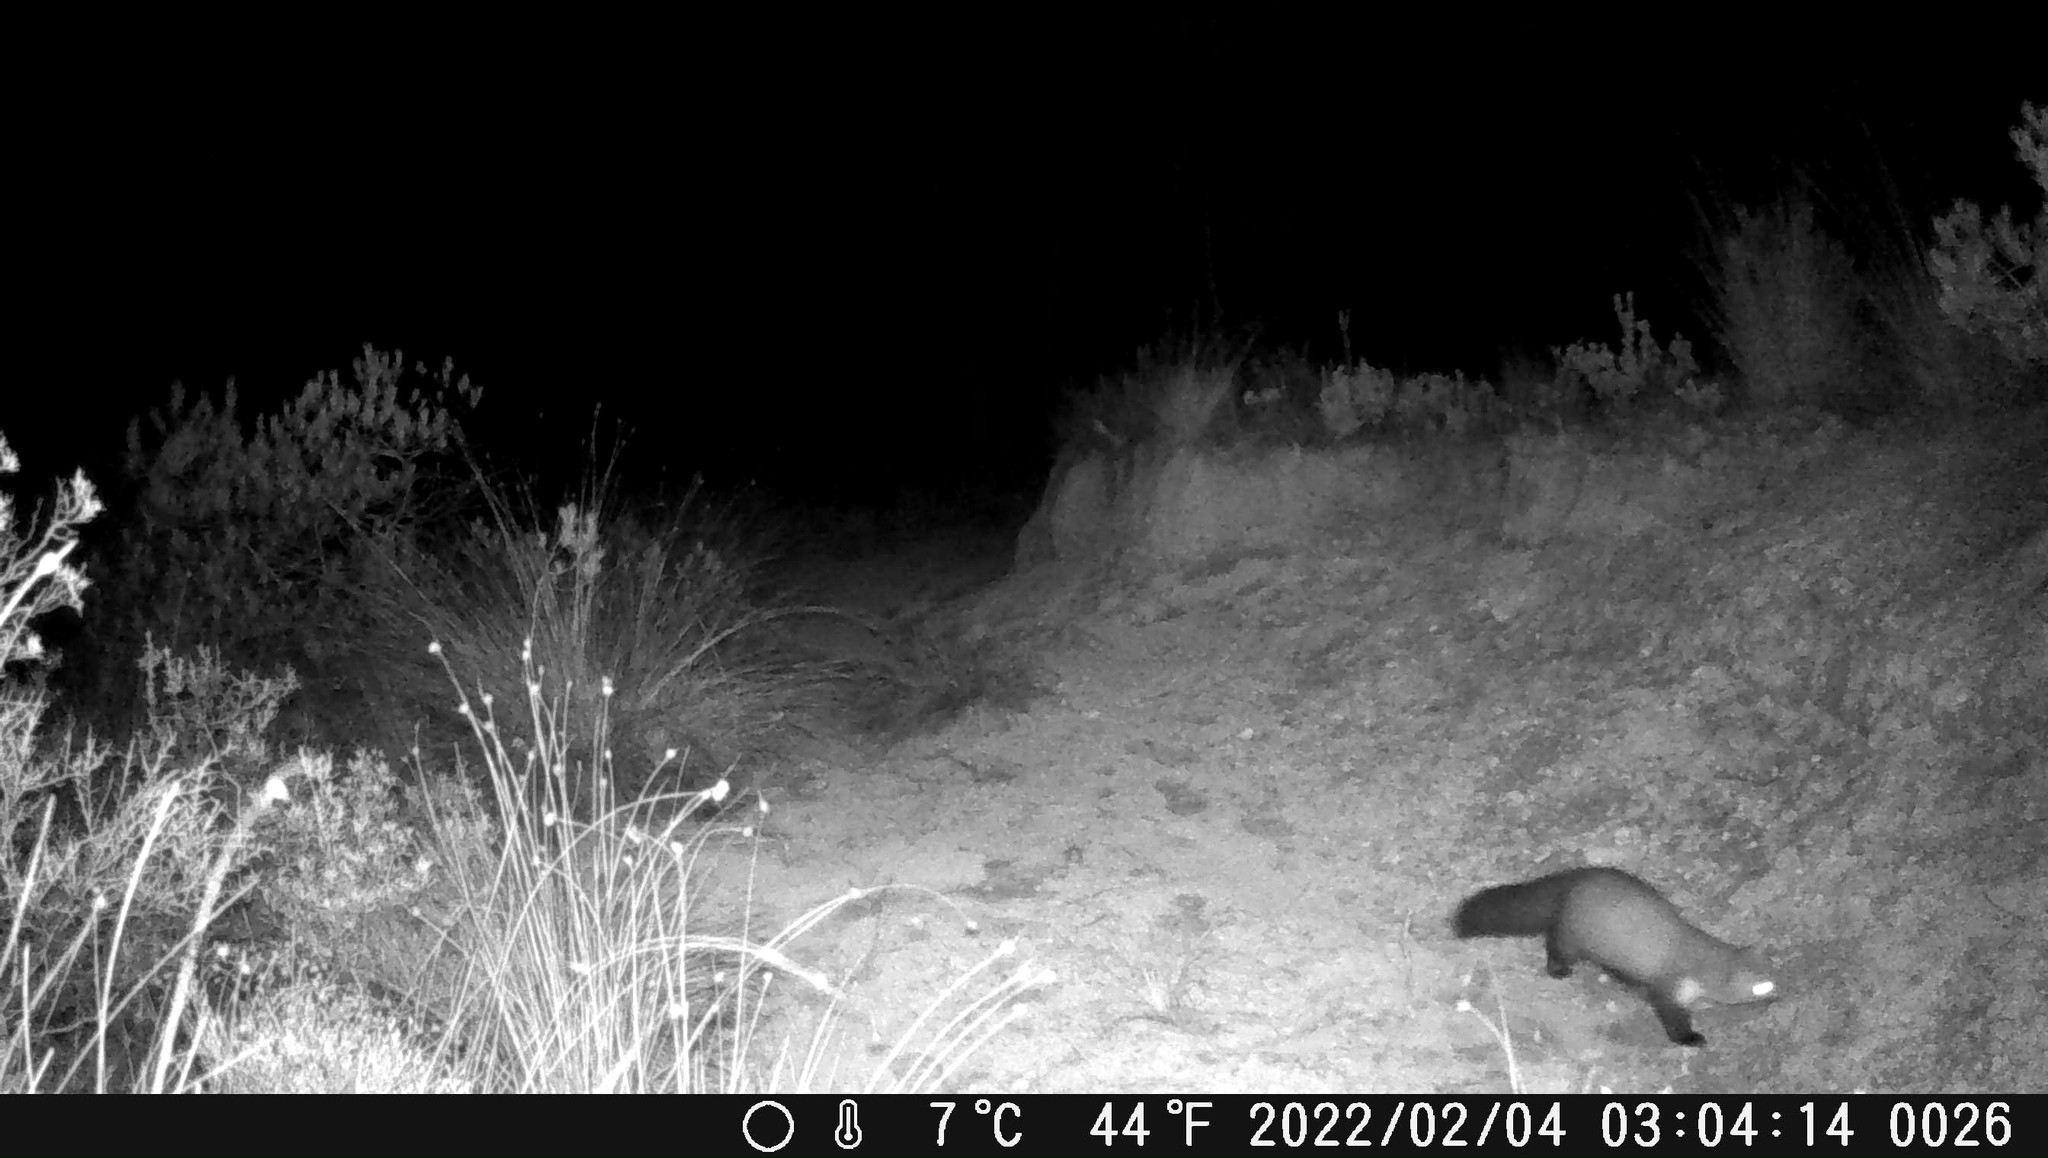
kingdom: Animalia
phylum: Chordata
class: Mammalia
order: Carnivora
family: Mustelidae
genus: Martes
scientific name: Martes foina
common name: Beech marten
